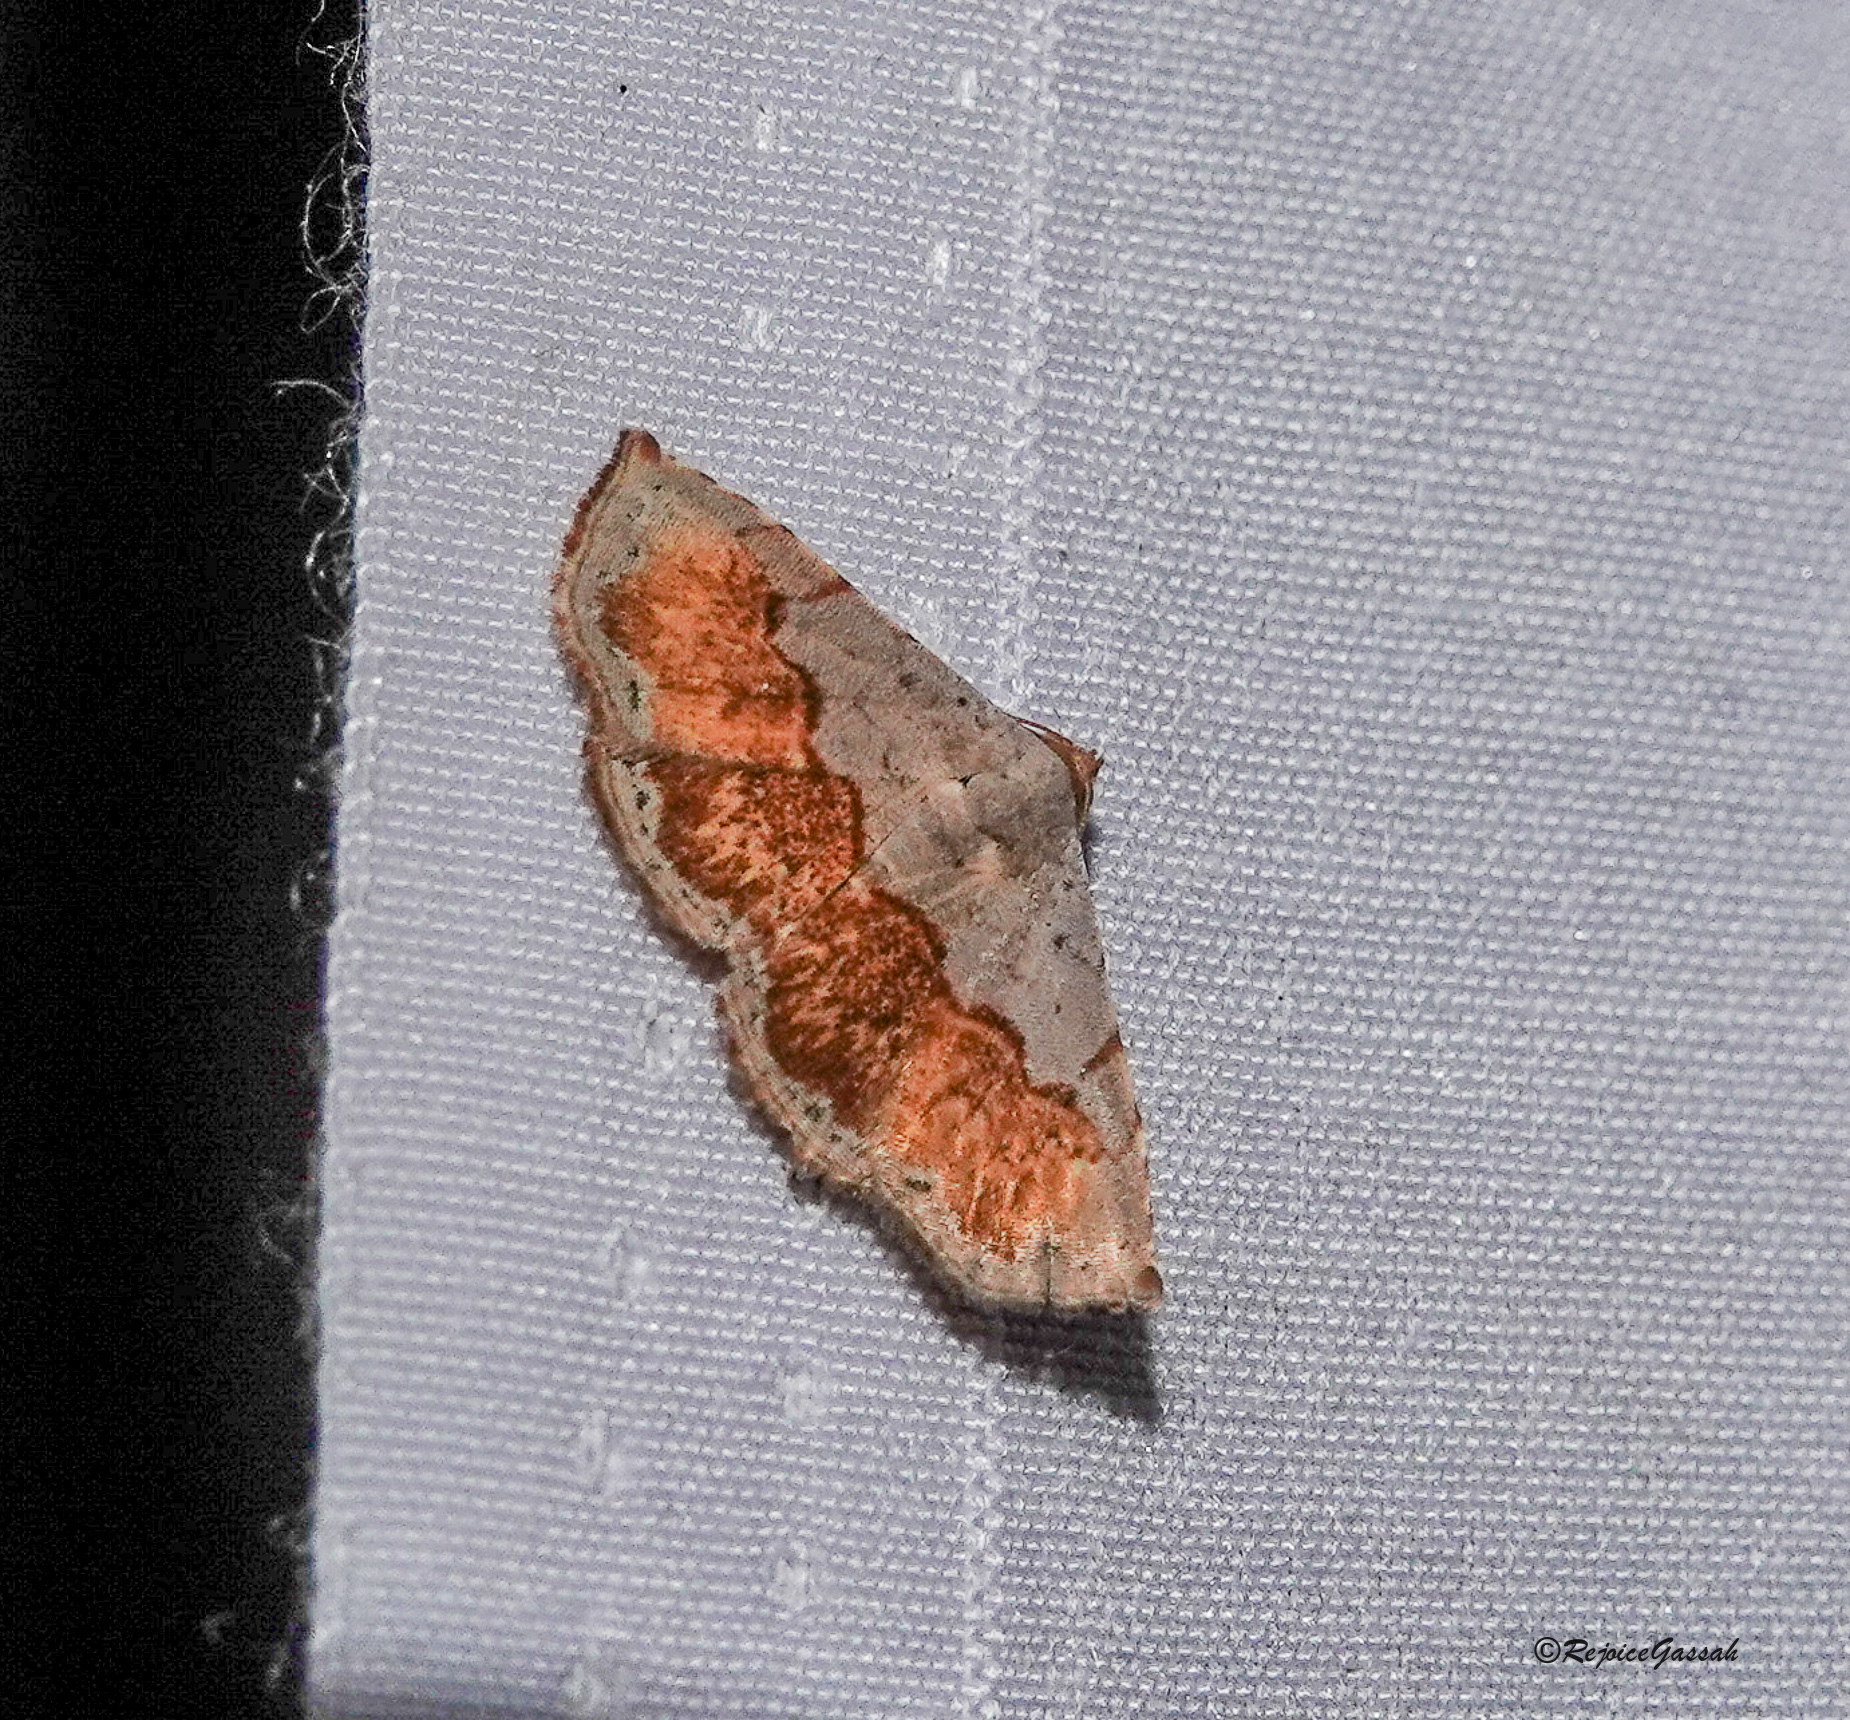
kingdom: Animalia
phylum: Arthropoda
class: Insecta
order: Lepidoptera
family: Noctuidae
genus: Eublemma
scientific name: Eublemma semirufa
